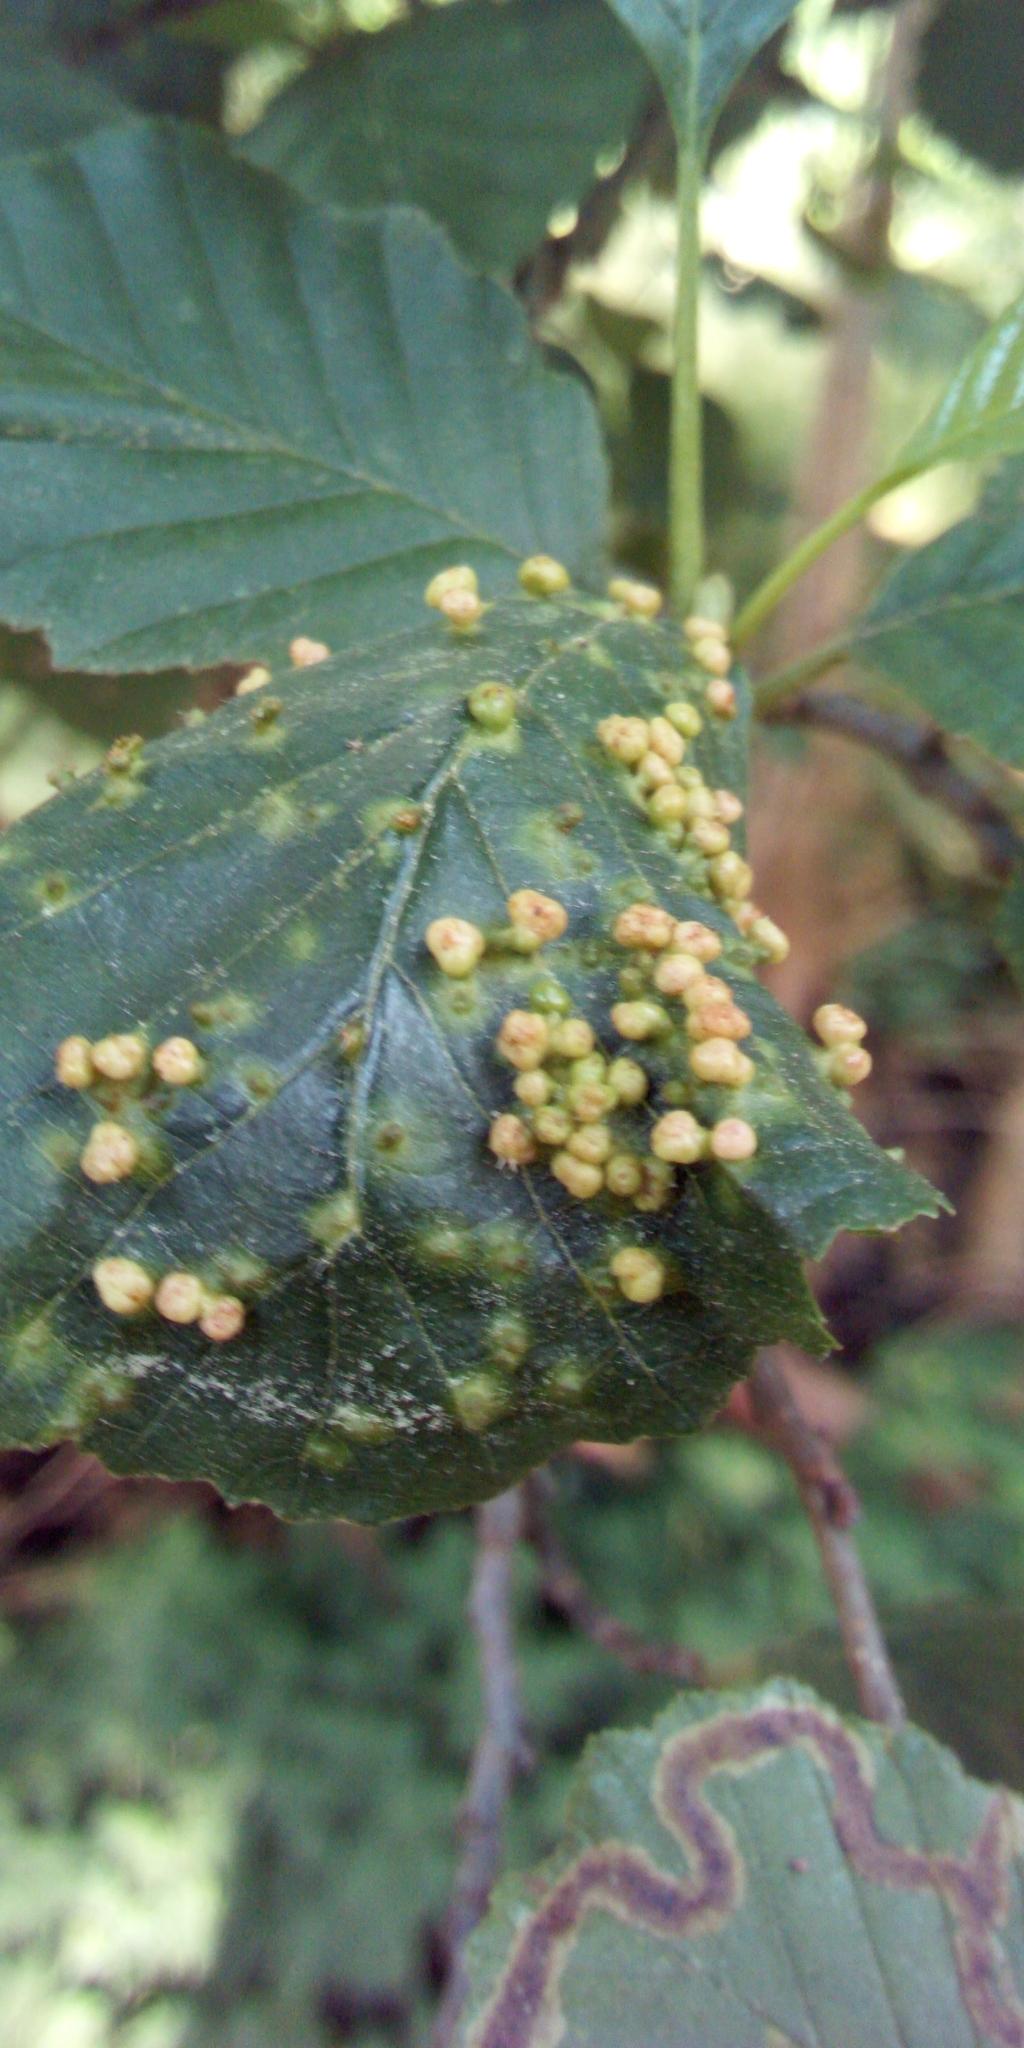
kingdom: Animalia
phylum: Arthropoda
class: Arachnida
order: Trombidiformes
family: Eriophyidae
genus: Eriophyes
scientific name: Eriophyes laevis
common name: Alder leaf gall mite
